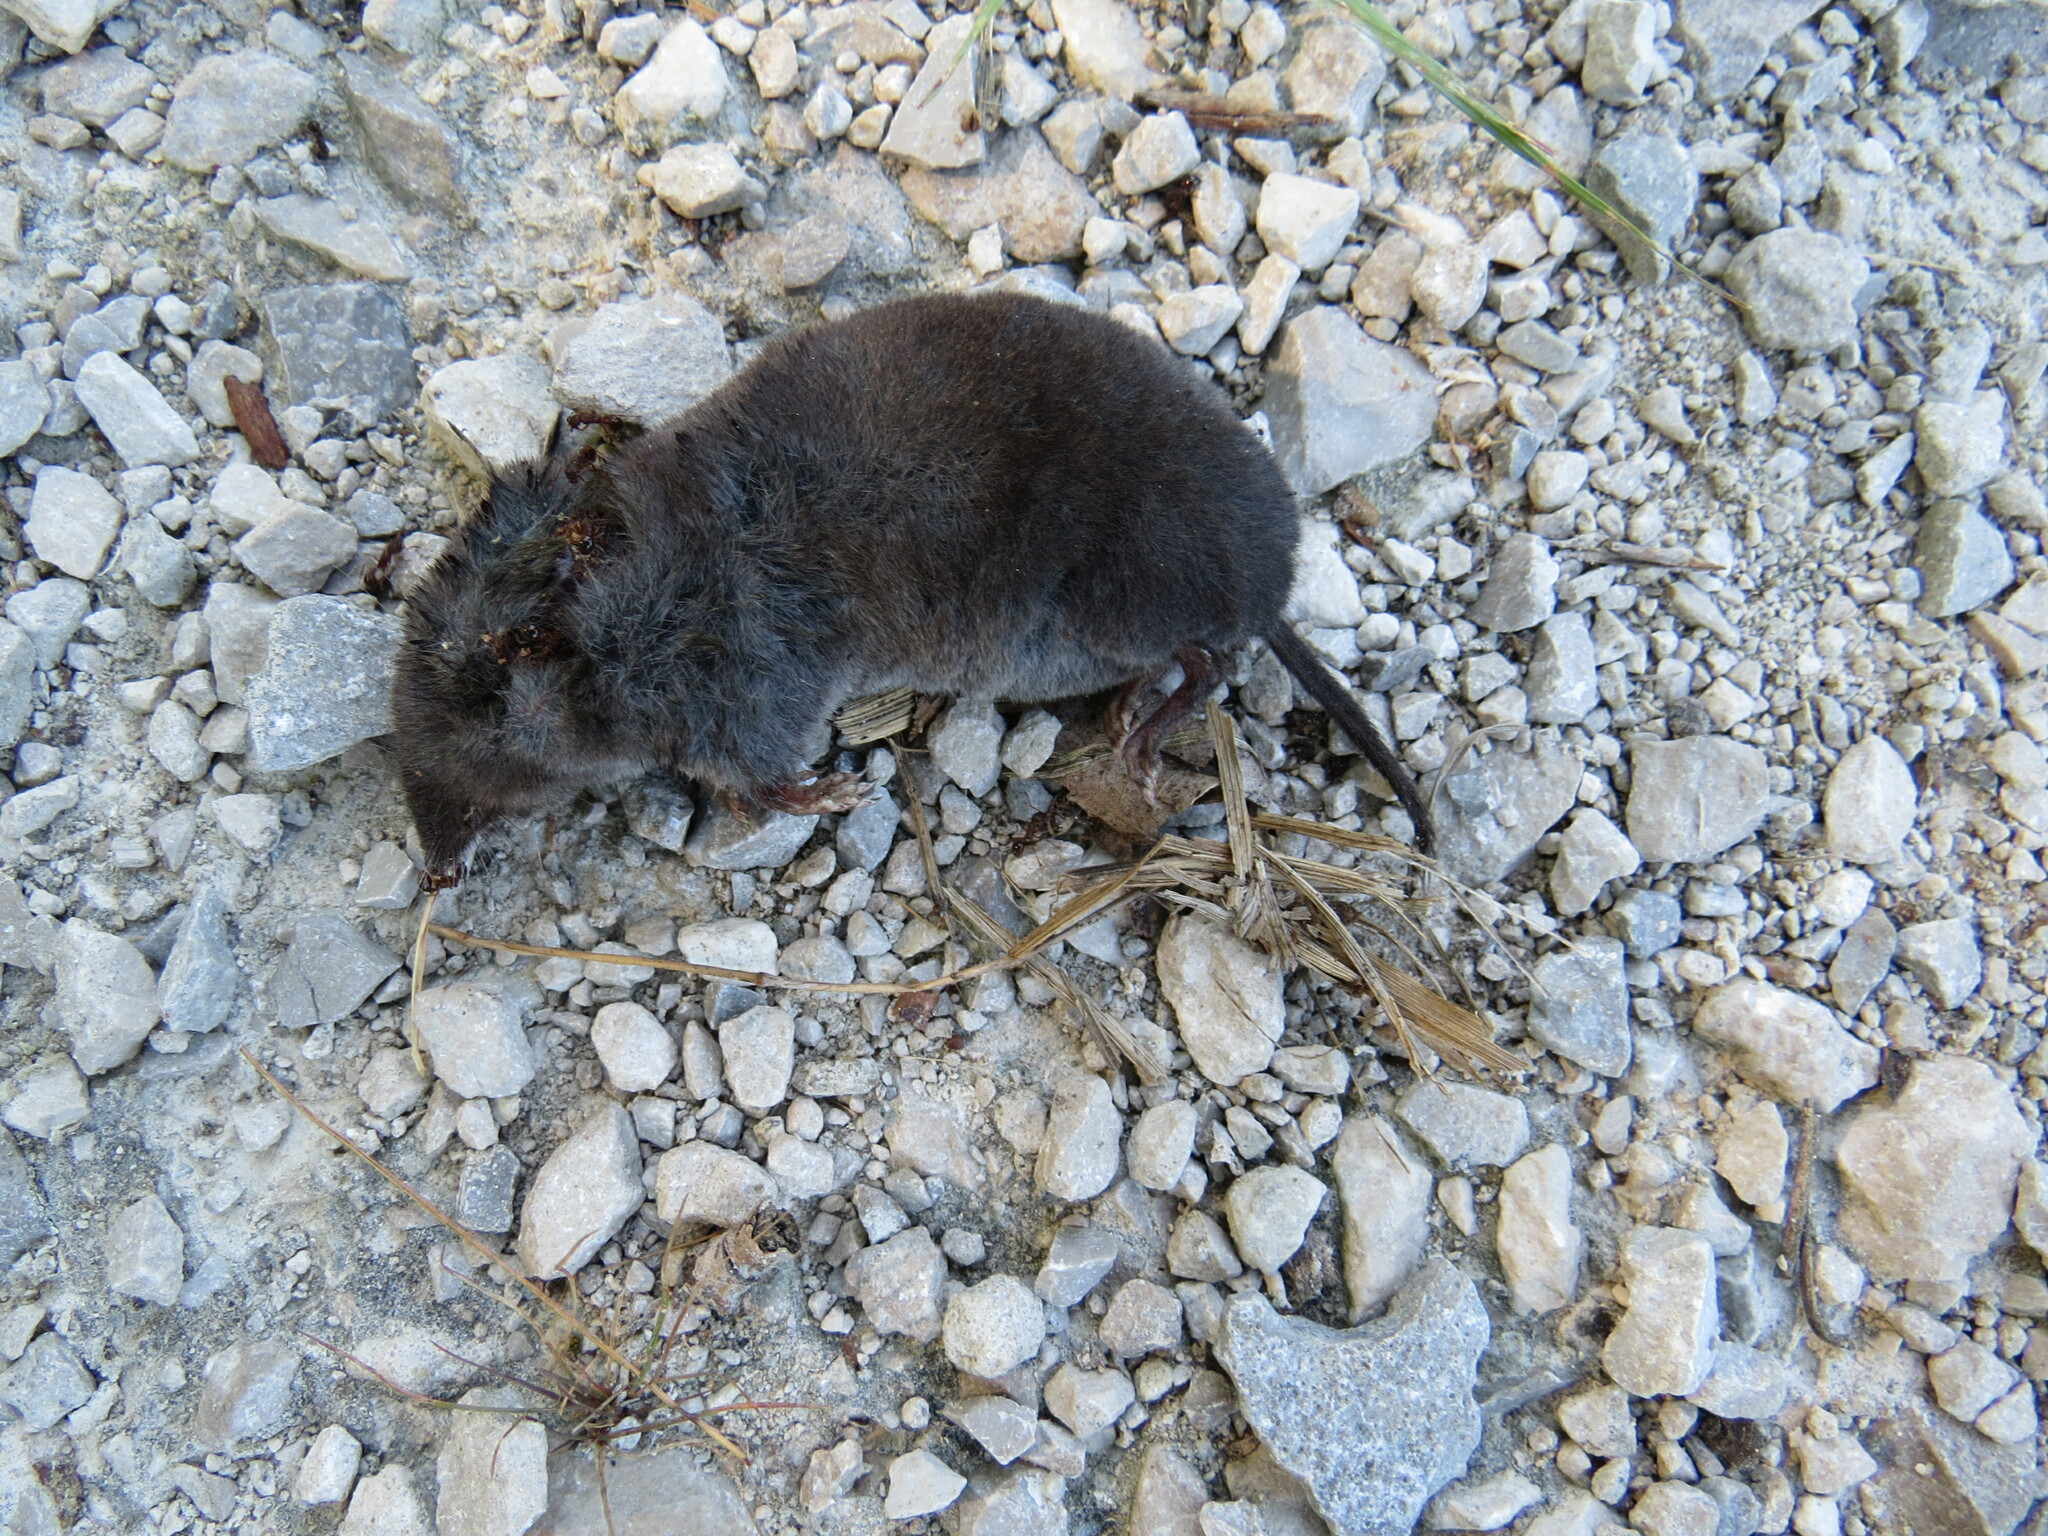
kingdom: Animalia
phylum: Chordata
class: Mammalia
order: Soricomorpha
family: Soricidae
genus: Blarina
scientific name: Blarina brevicauda
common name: Northern short-tailed shrew
